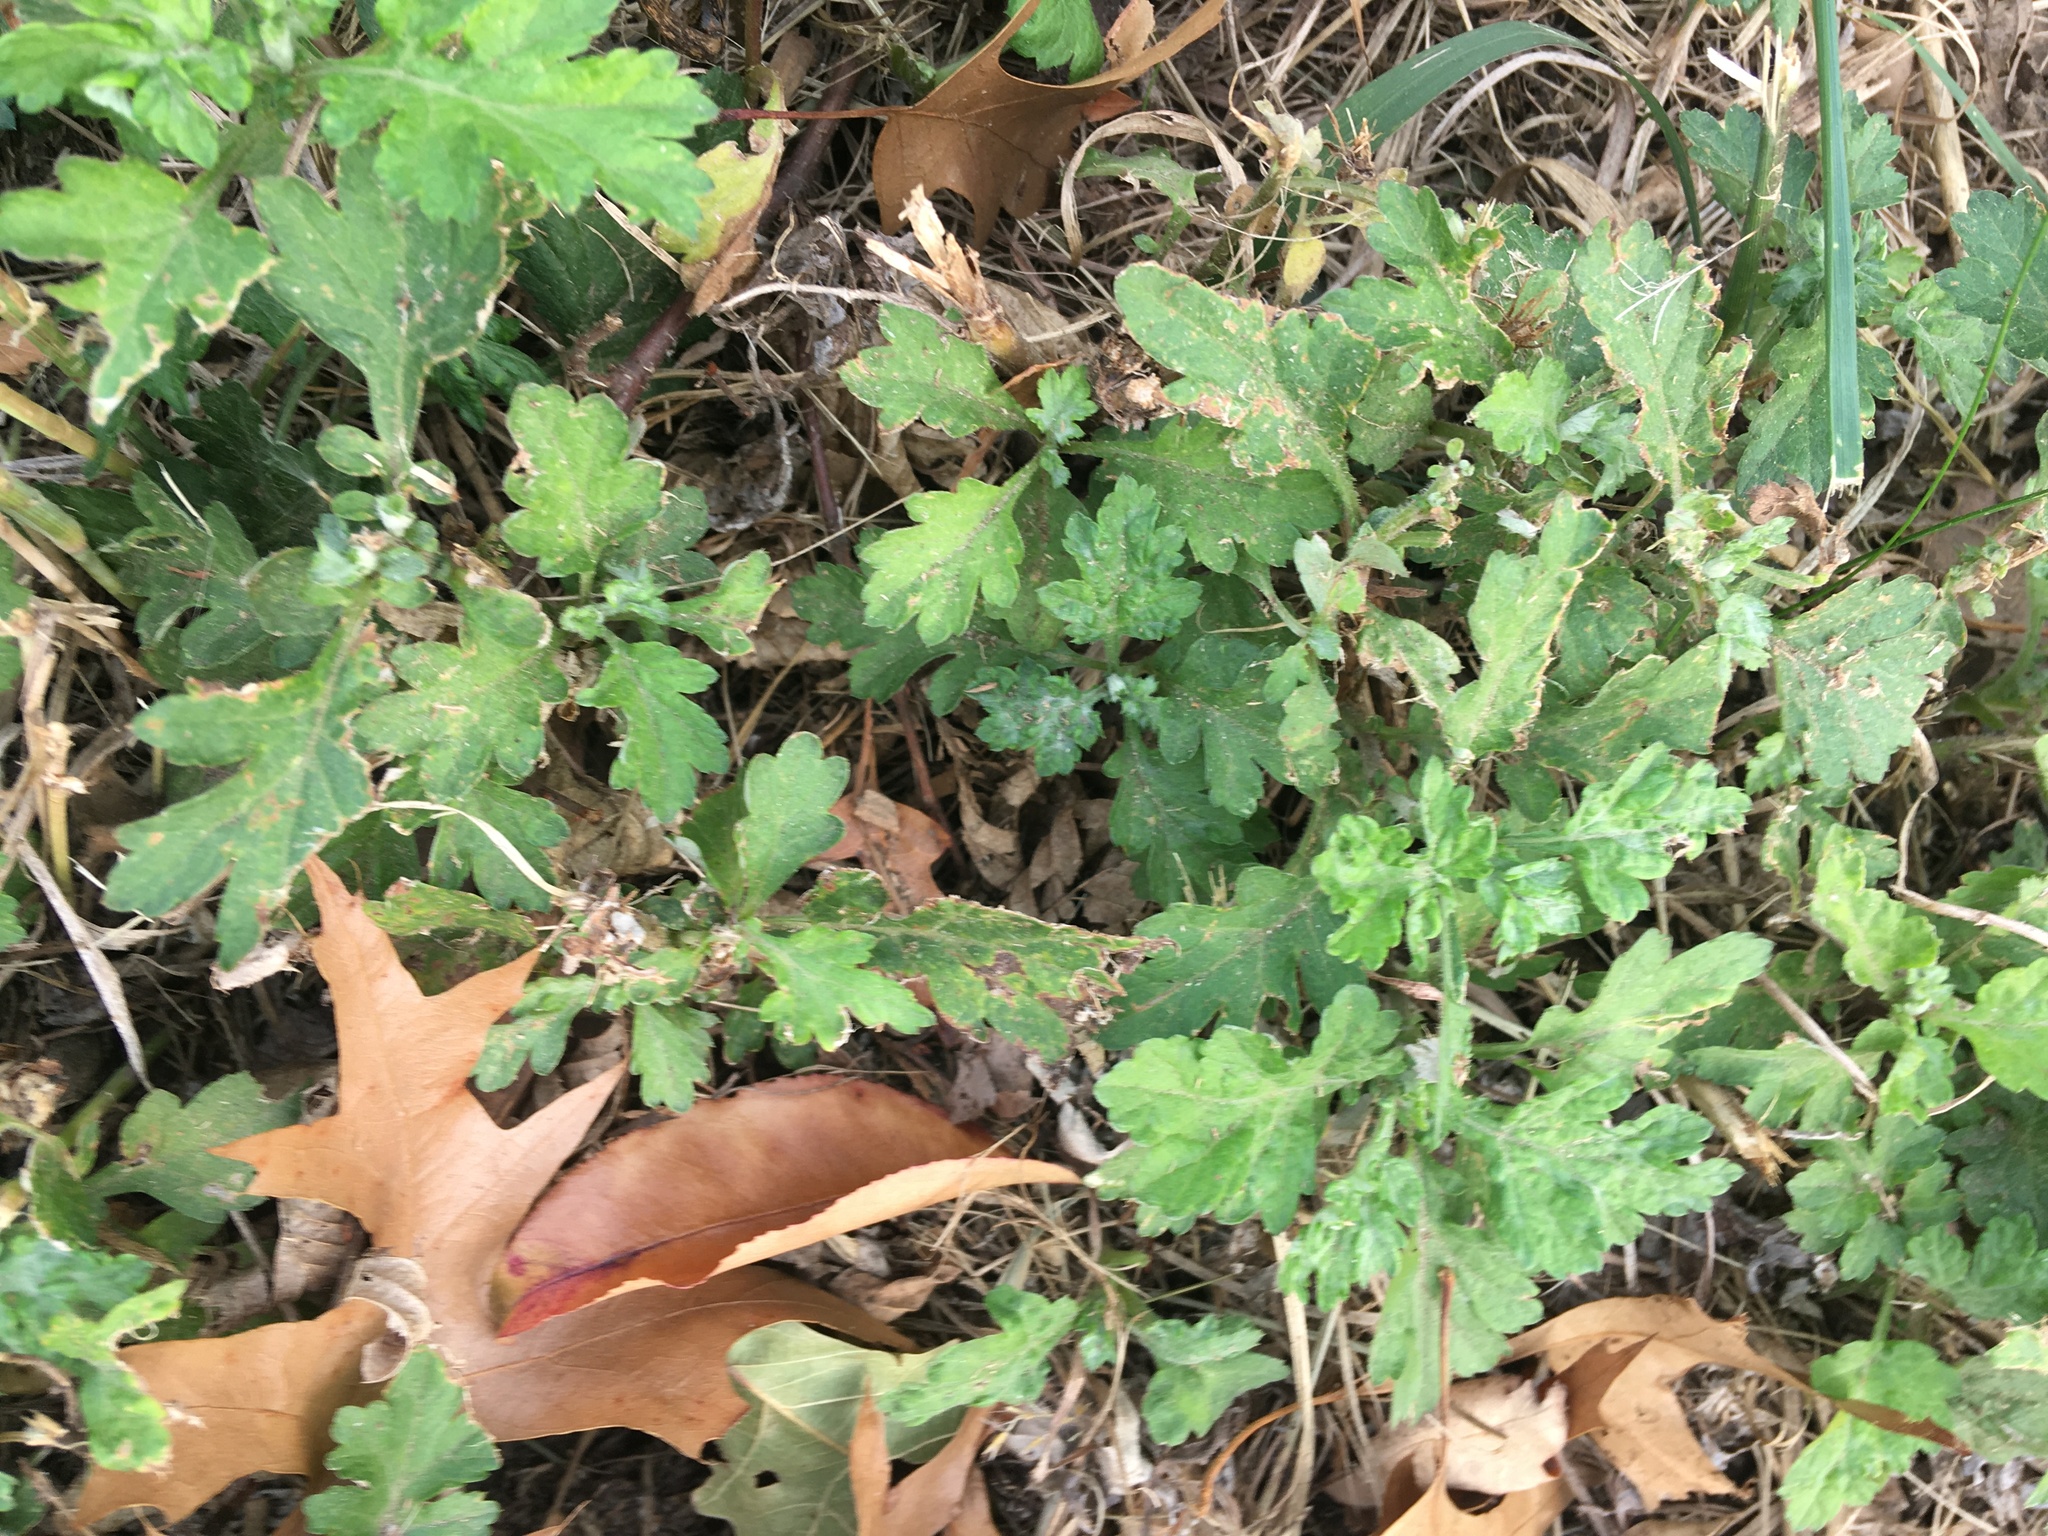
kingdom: Plantae
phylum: Tracheophyta
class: Magnoliopsida
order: Asterales
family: Asteraceae
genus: Artemisia
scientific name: Artemisia vulgaris
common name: Mugwort
